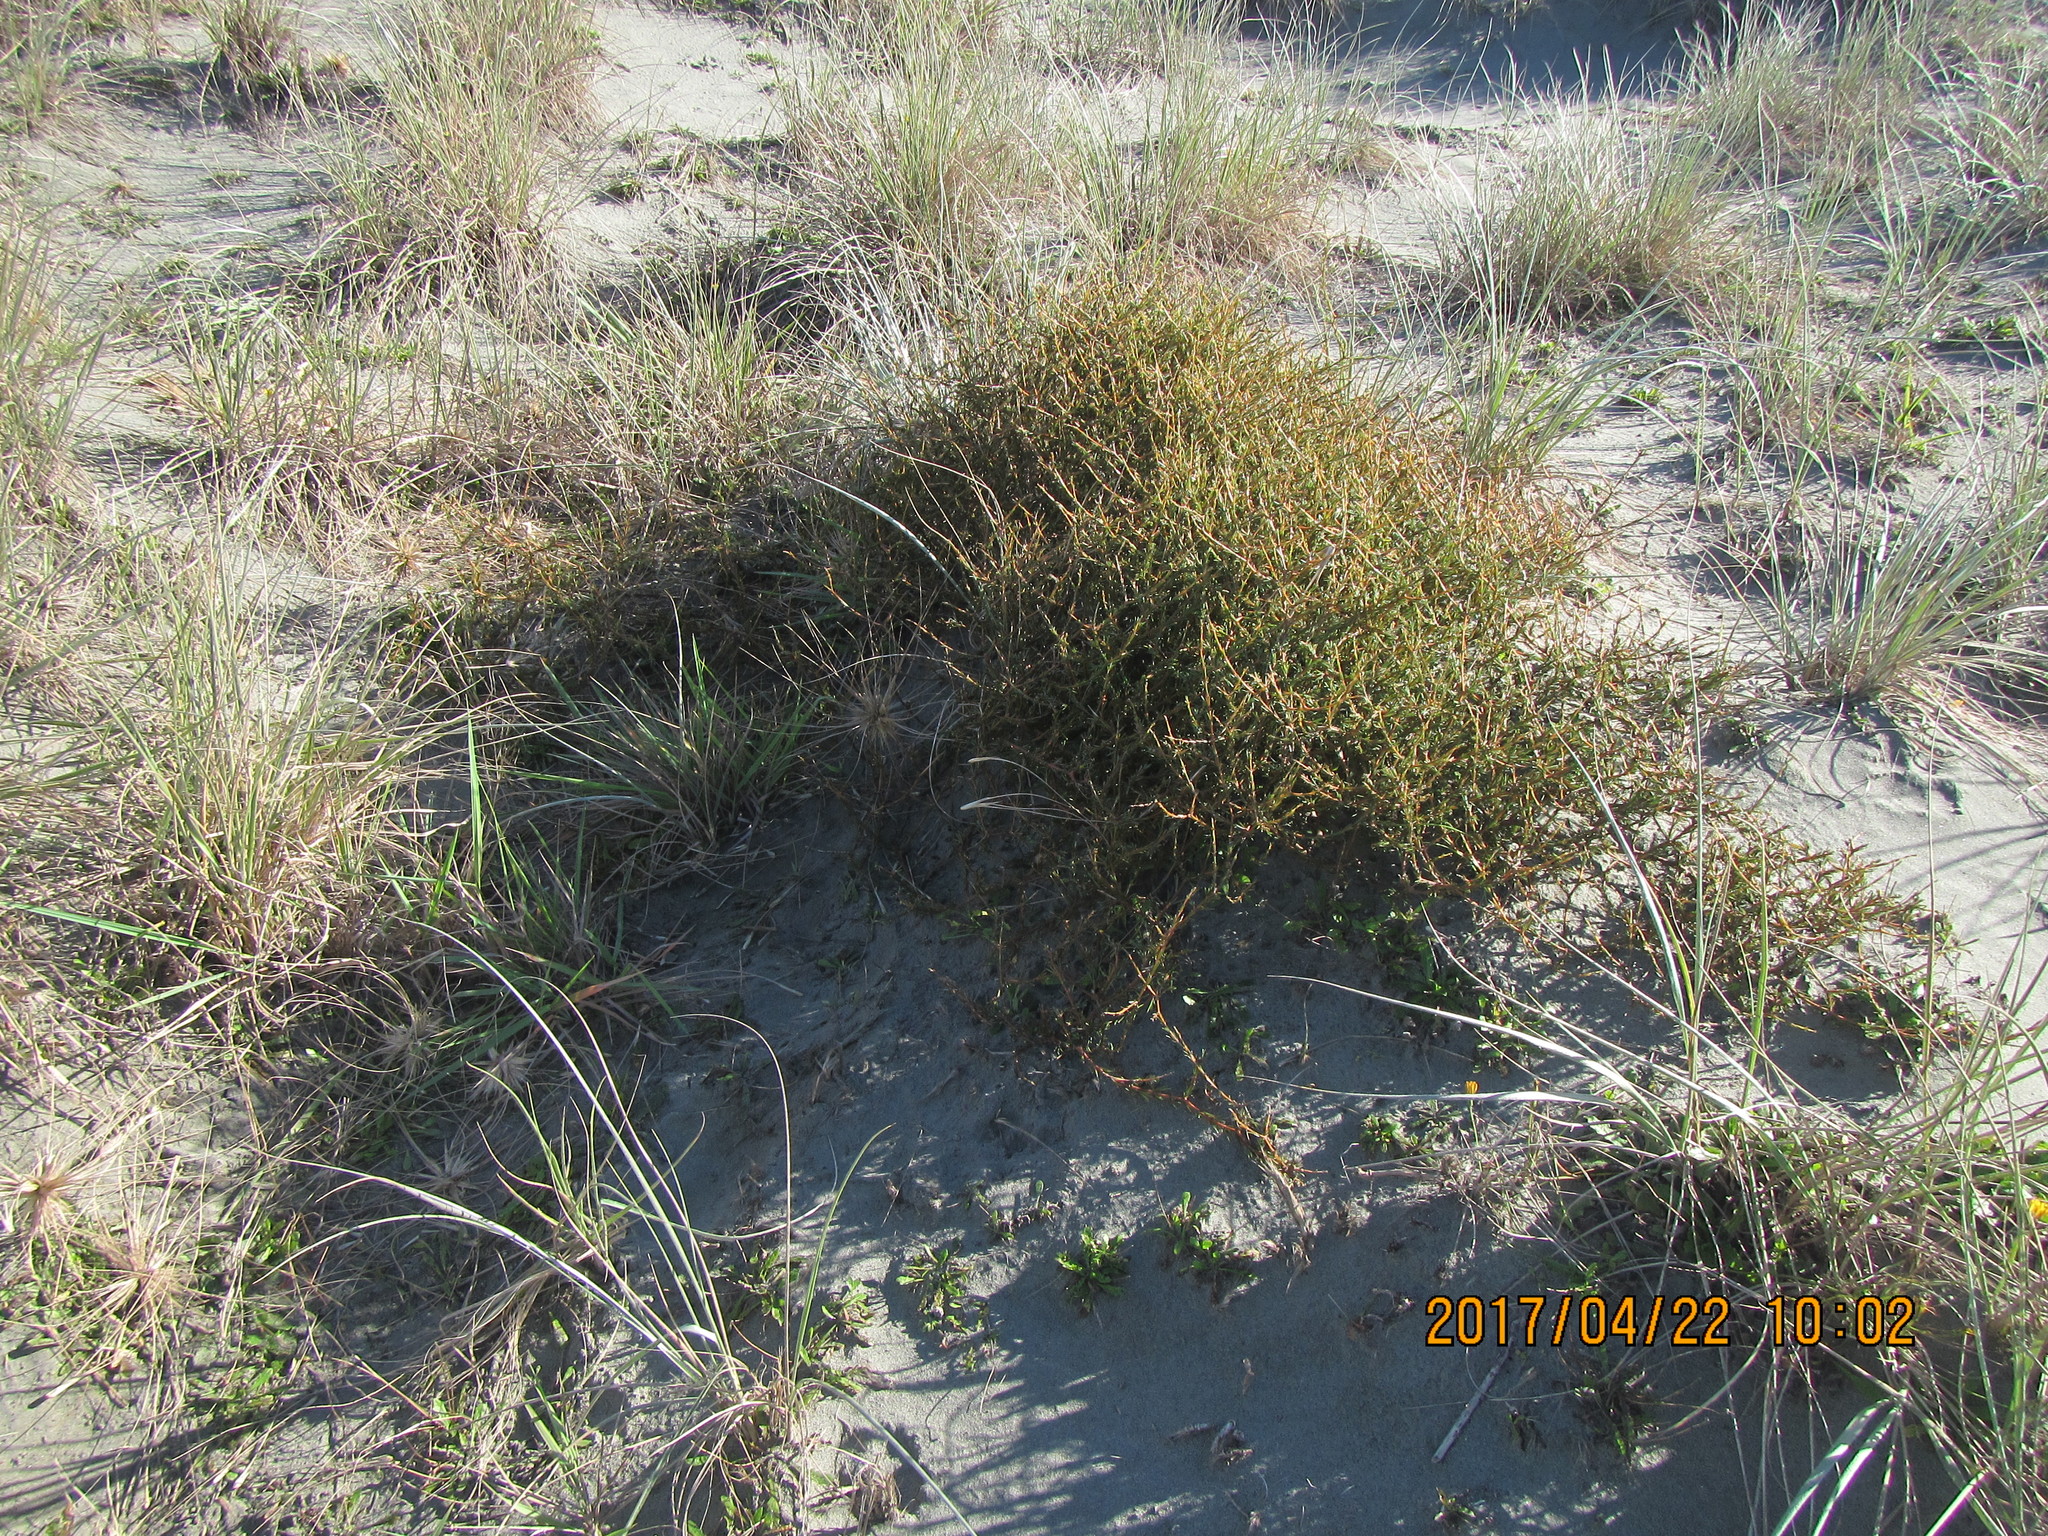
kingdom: Plantae
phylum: Tracheophyta
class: Magnoliopsida
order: Gentianales
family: Rubiaceae
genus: Coprosma
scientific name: Coprosma acerosa
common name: Sand coprosma
